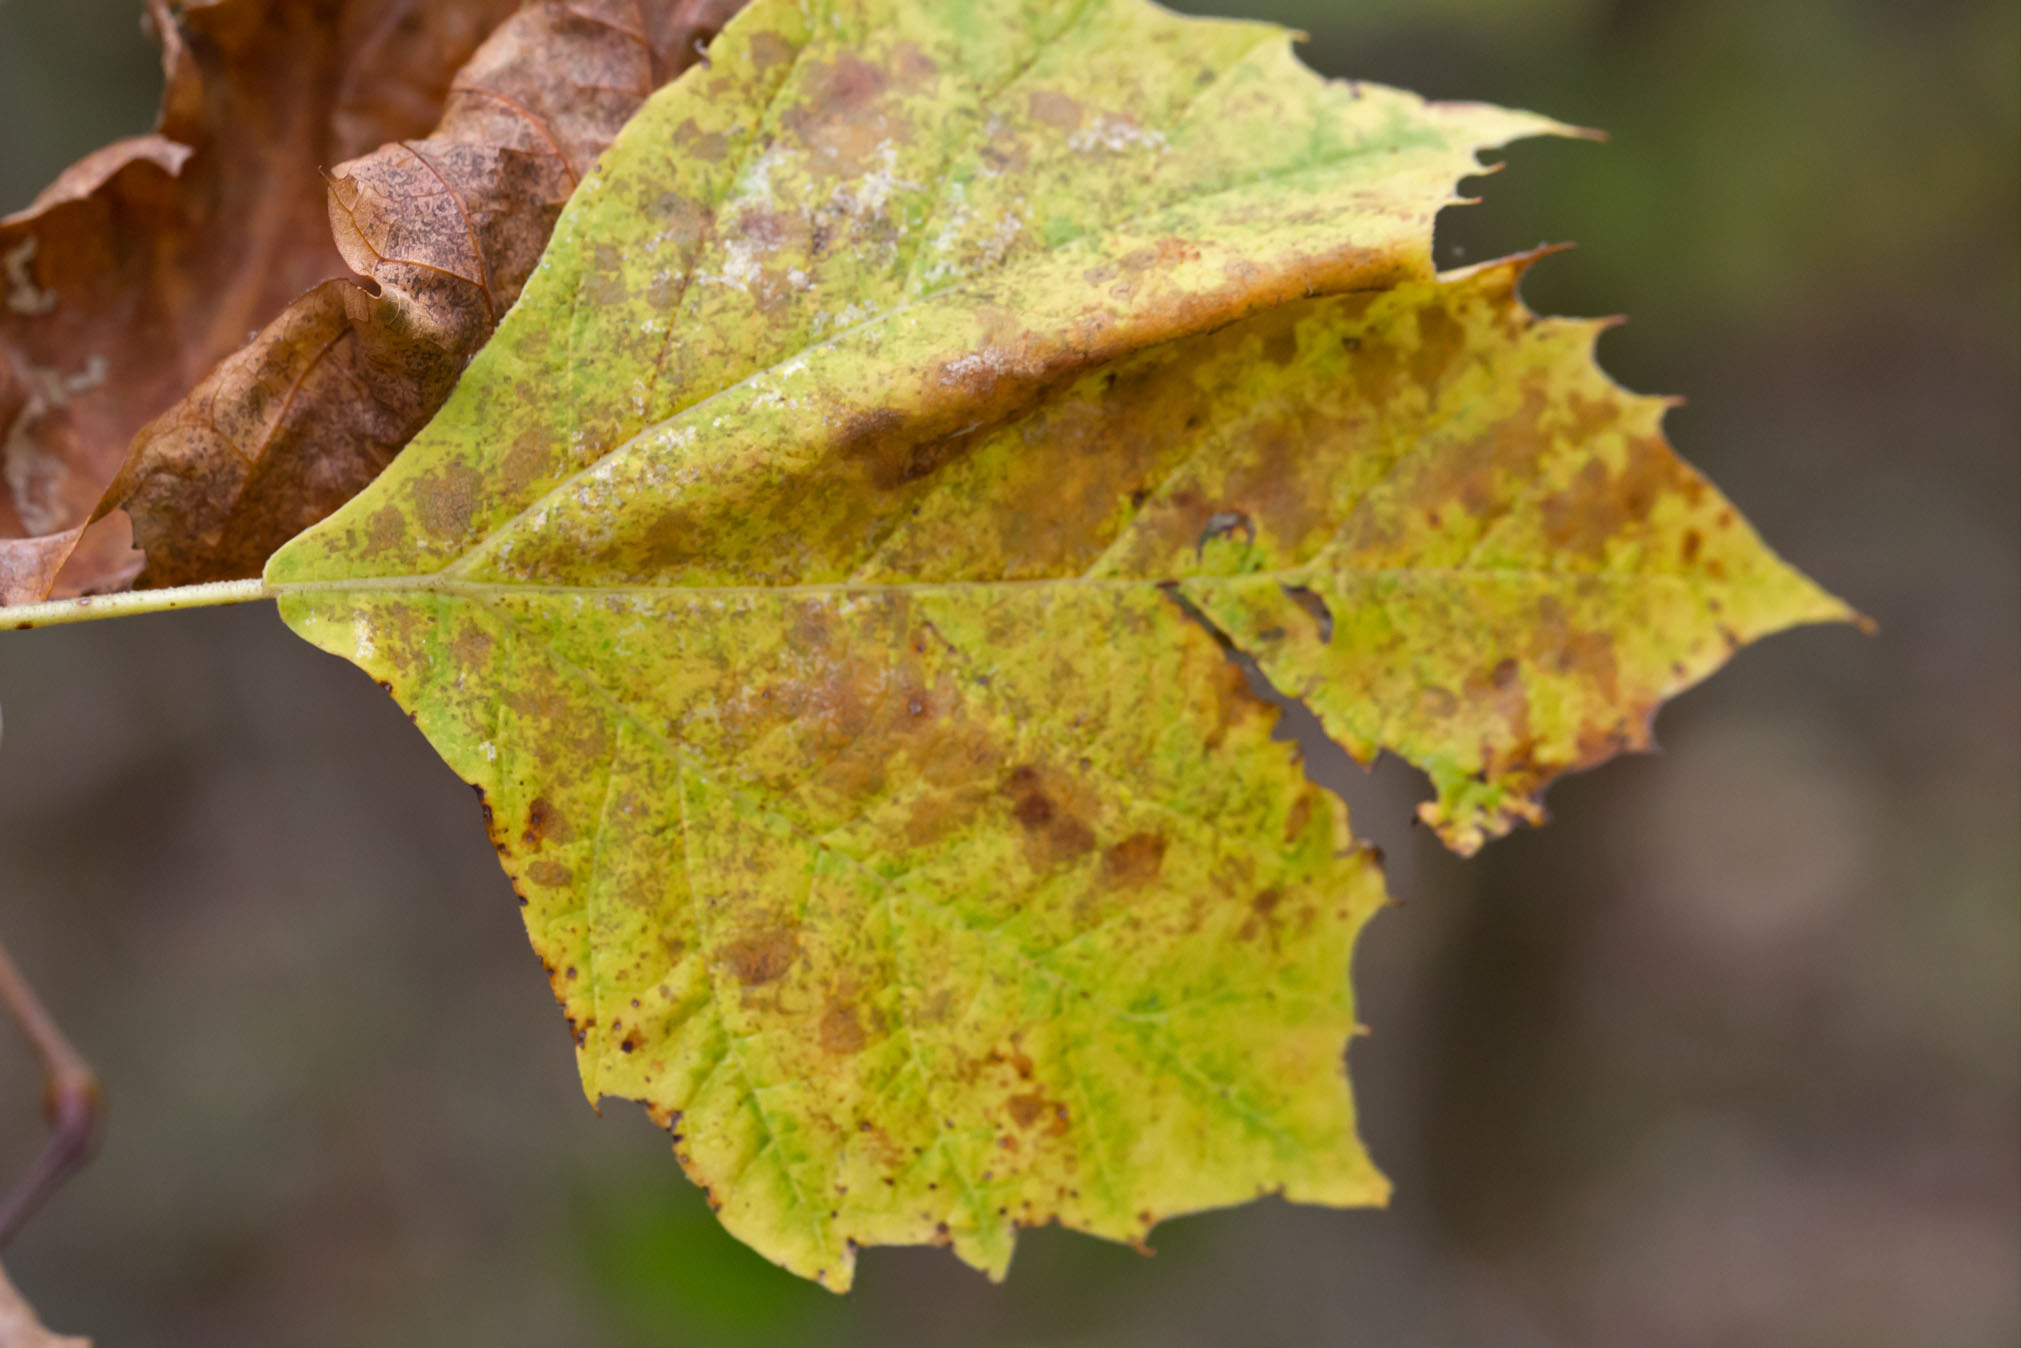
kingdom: Plantae
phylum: Tracheophyta
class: Magnoliopsida
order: Proteales
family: Platanaceae
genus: Platanus
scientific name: Platanus occidentalis
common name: American sycamore
